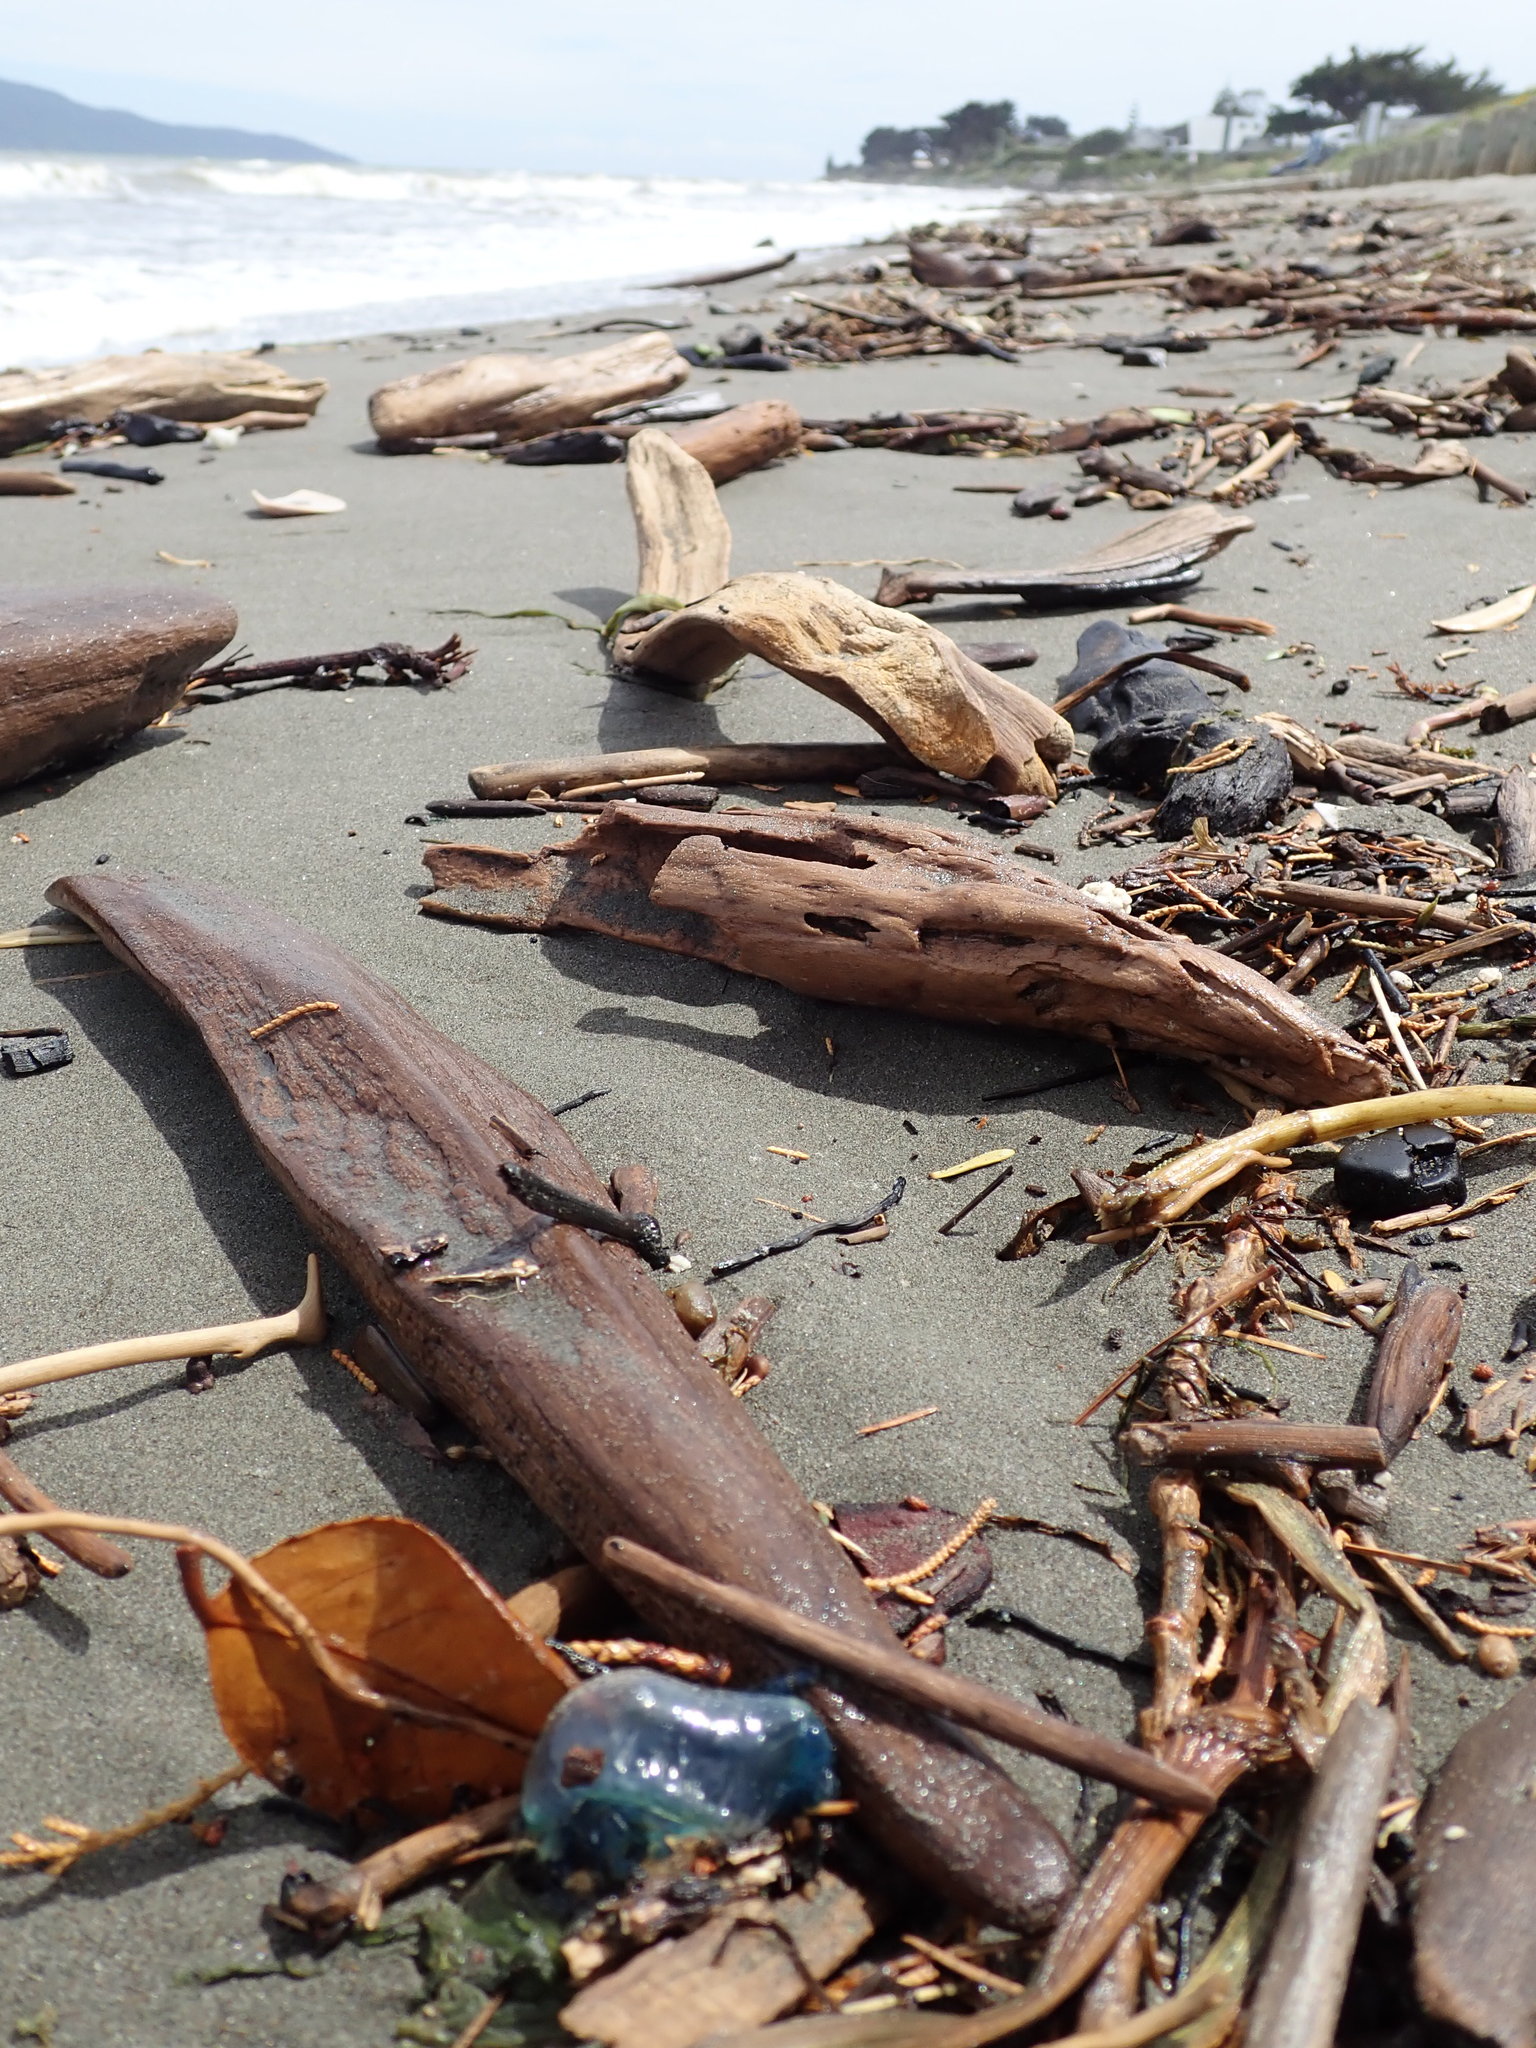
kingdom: Animalia
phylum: Cnidaria
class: Hydrozoa
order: Siphonophorae
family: Physaliidae
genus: Physalia
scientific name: Physalia physalis
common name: Portuguese man-of-war
